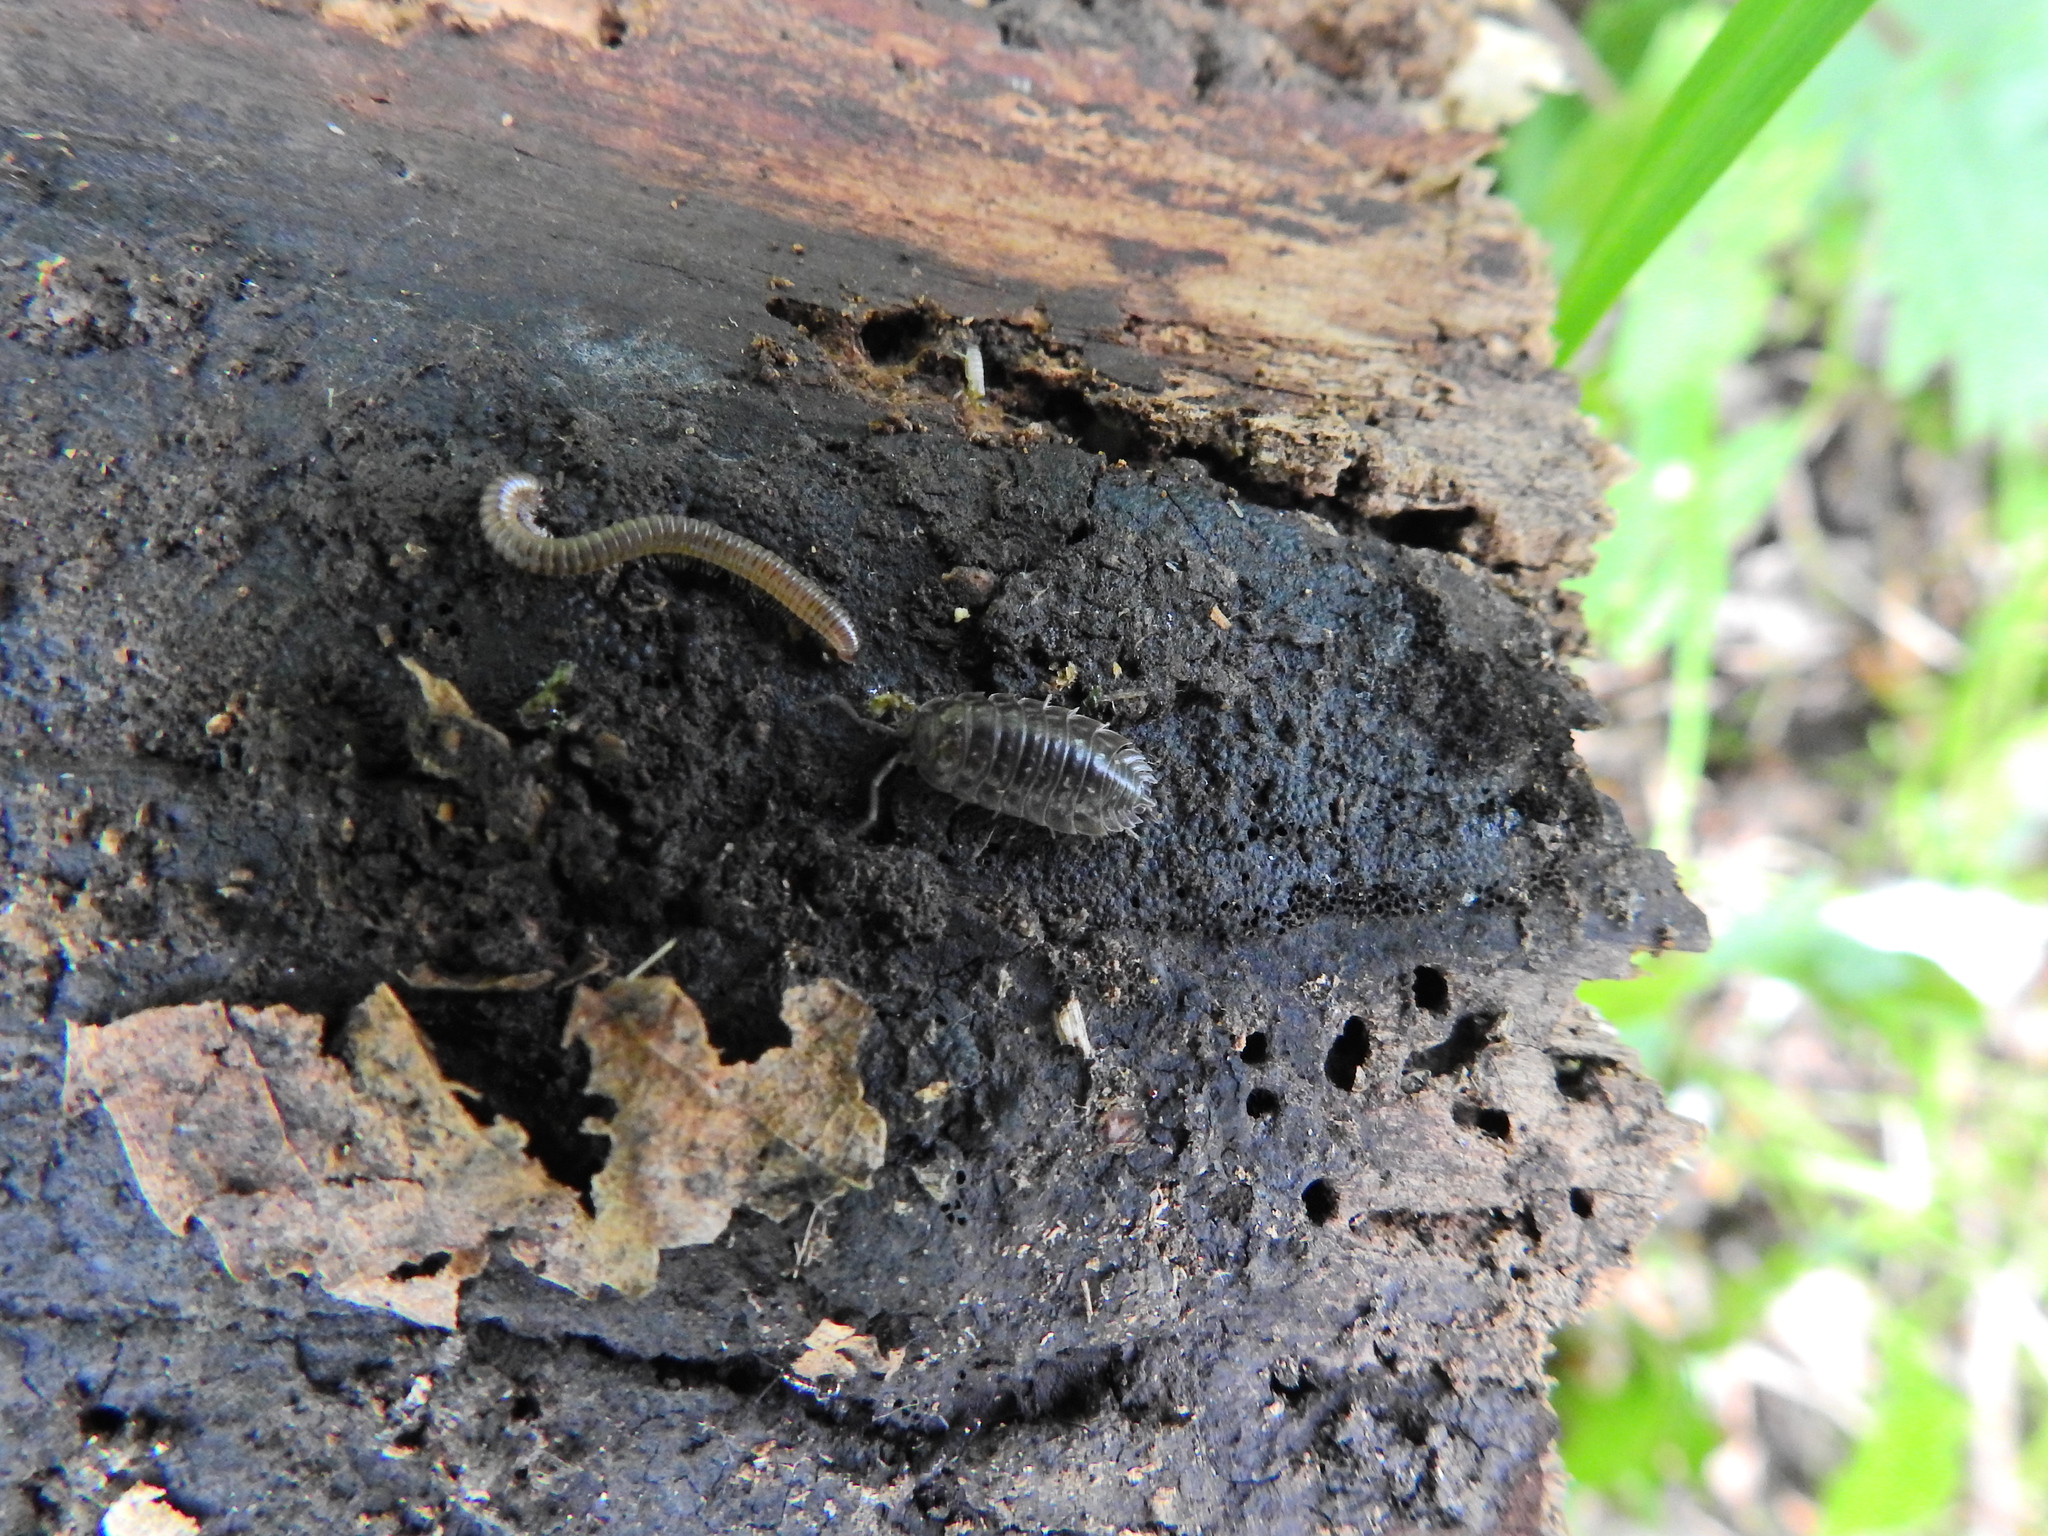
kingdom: Animalia
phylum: Arthropoda
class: Malacostraca
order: Isopoda
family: Oniscidae
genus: Oniscus
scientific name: Oniscus asellus
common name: Common shiny woodlouse
